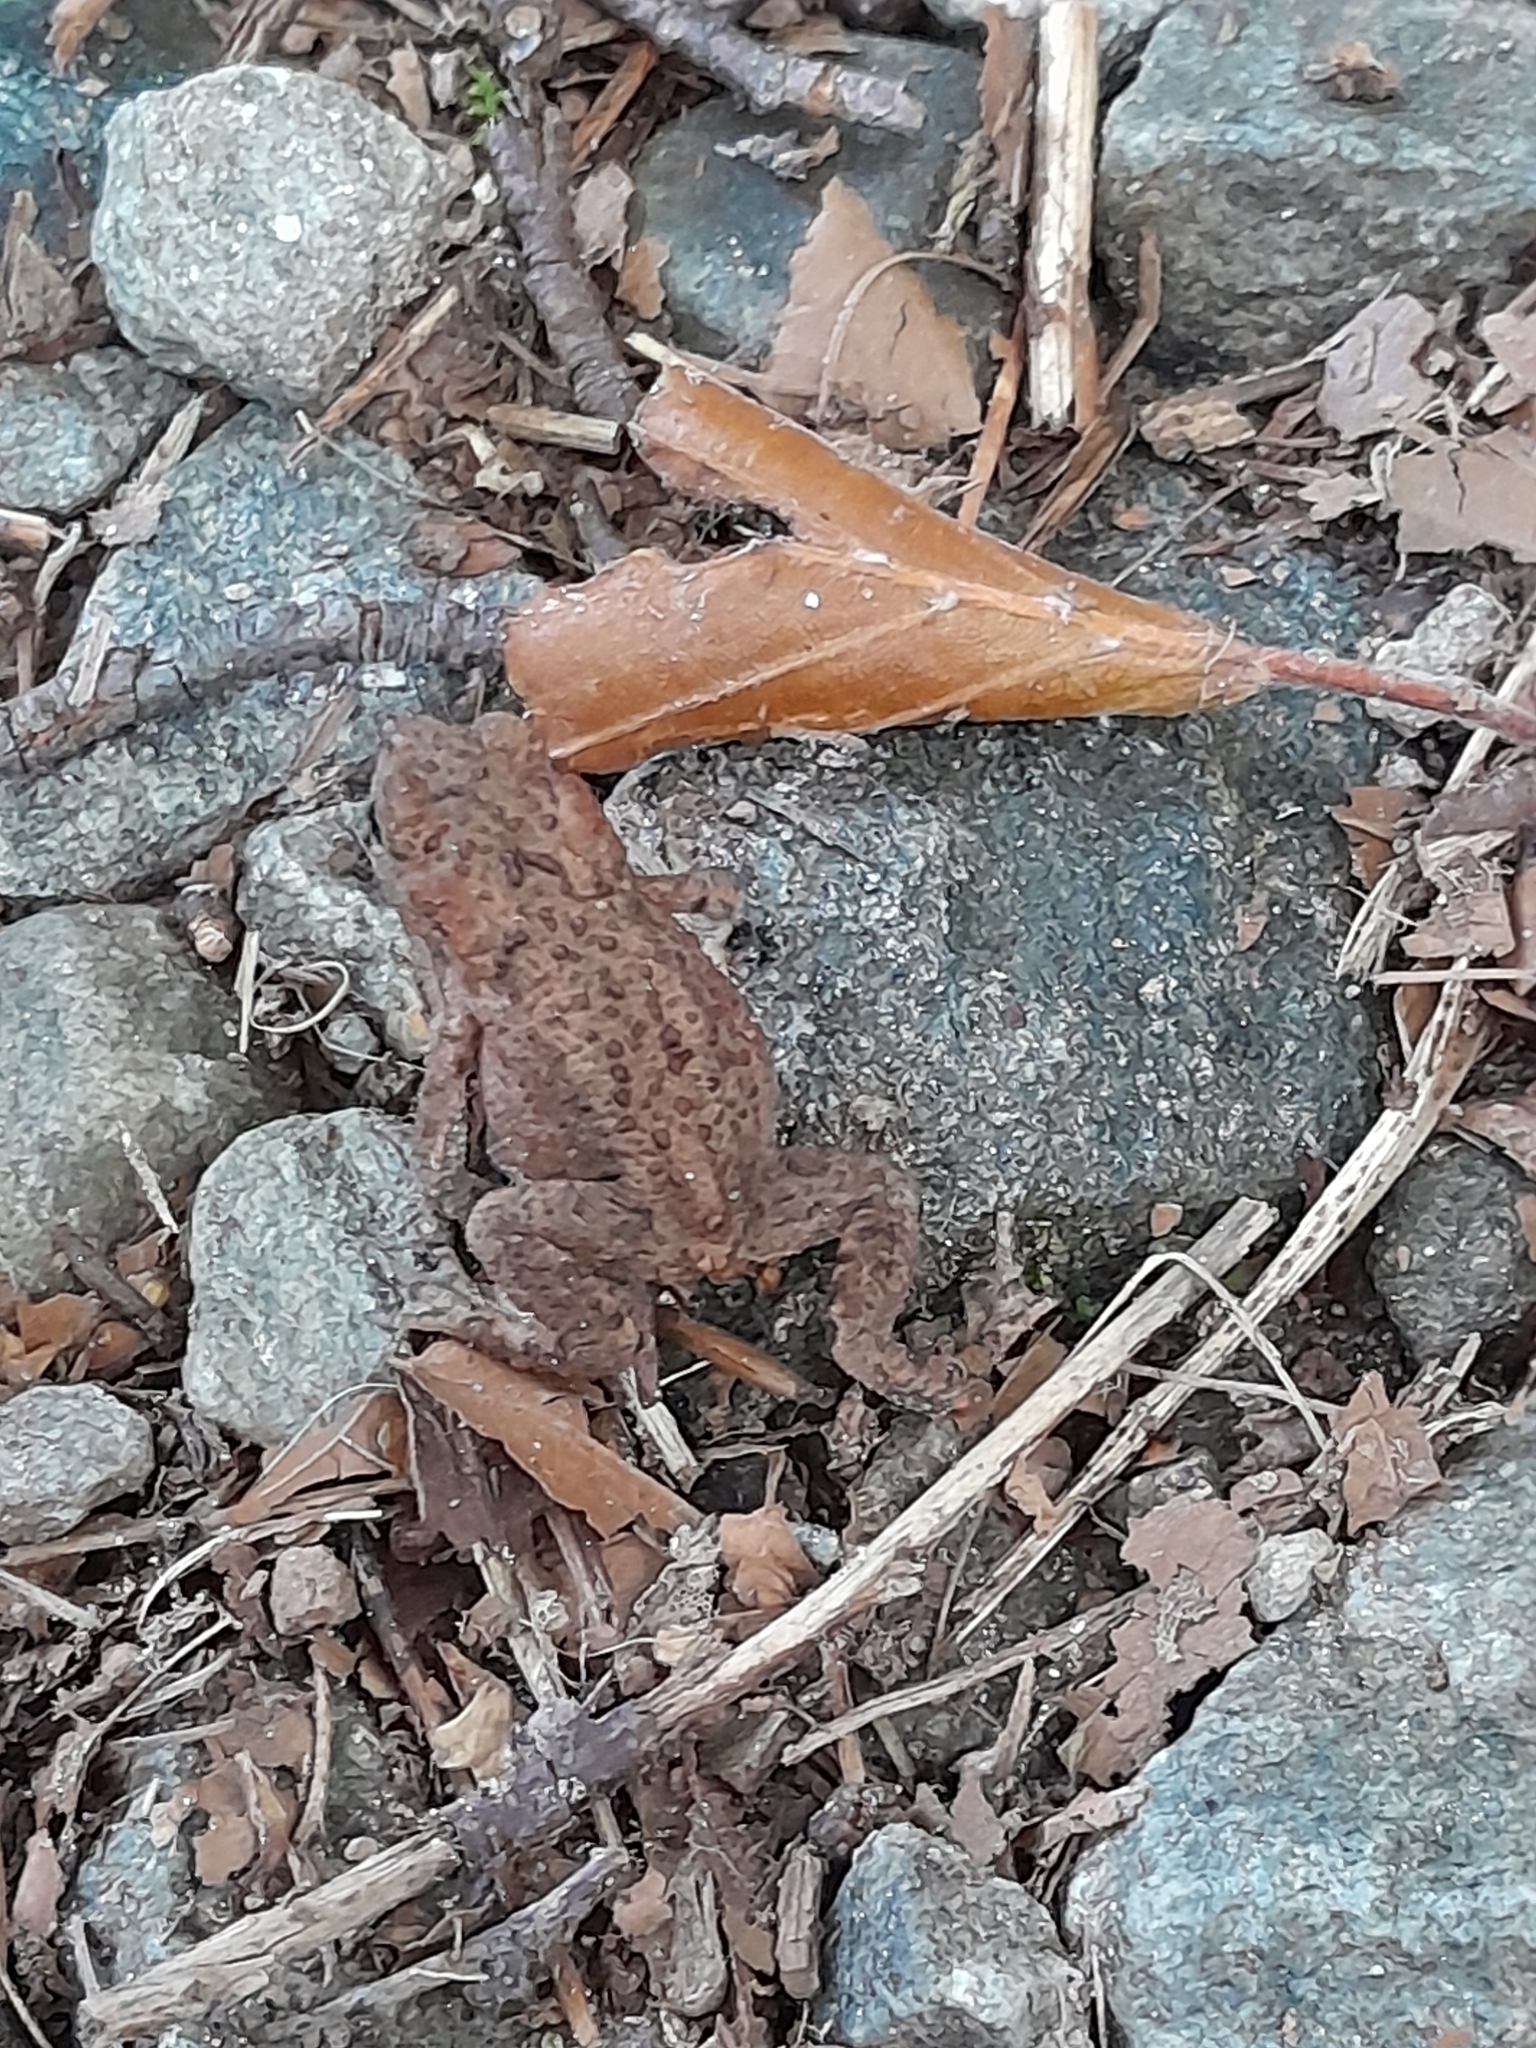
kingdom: Animalia
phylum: Chordata
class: Amphibia
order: Anura
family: Bufonidae
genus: Bufo
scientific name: Bufo bufo
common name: Common toad
